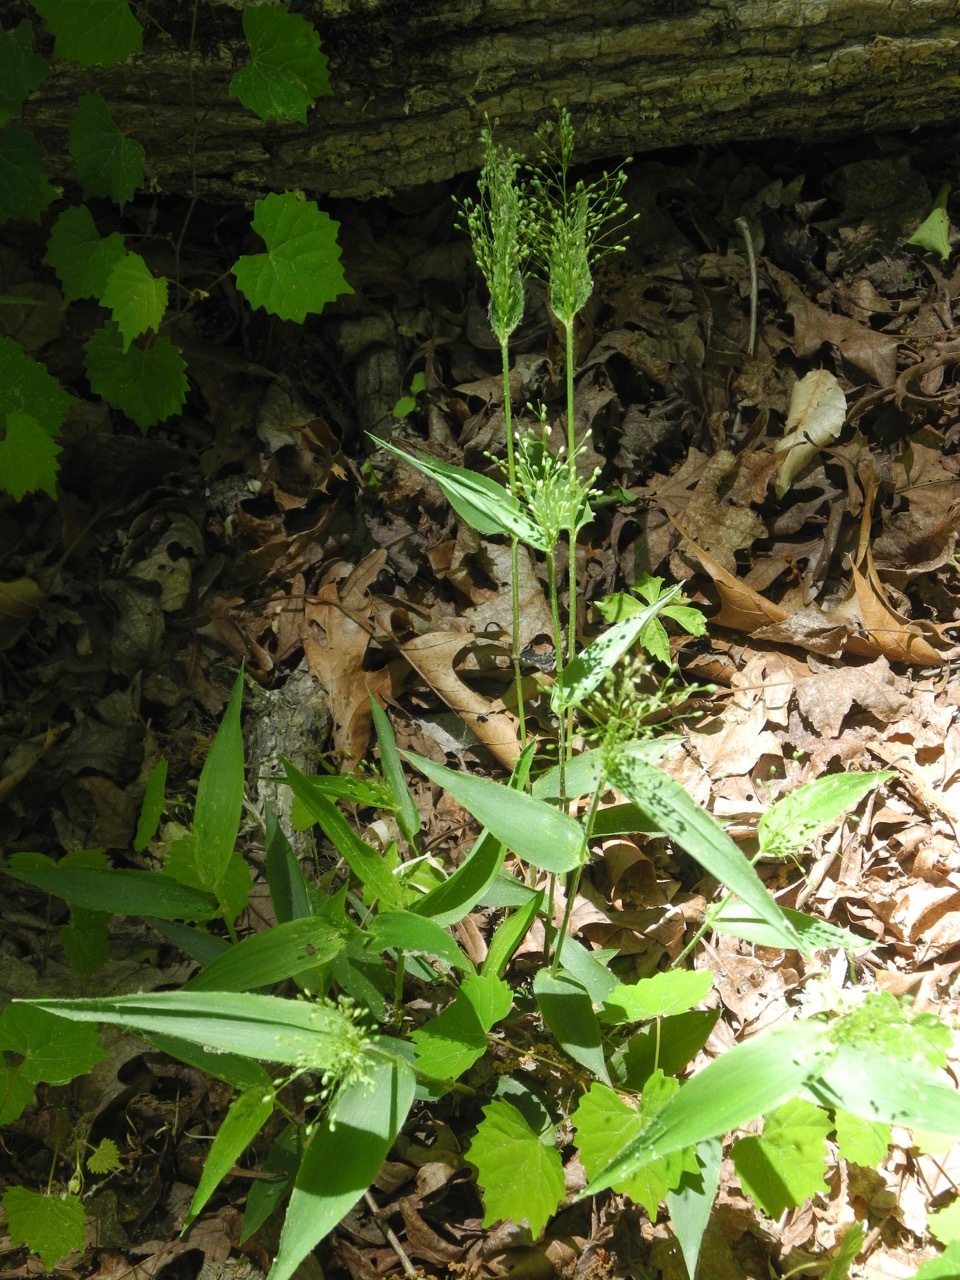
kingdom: Plantae
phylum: Tracheophyta
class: Liliopsida
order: Poales
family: Poaceae
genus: Dichanthelium
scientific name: Dichanthelium commutatum
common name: Variable witchgrass
